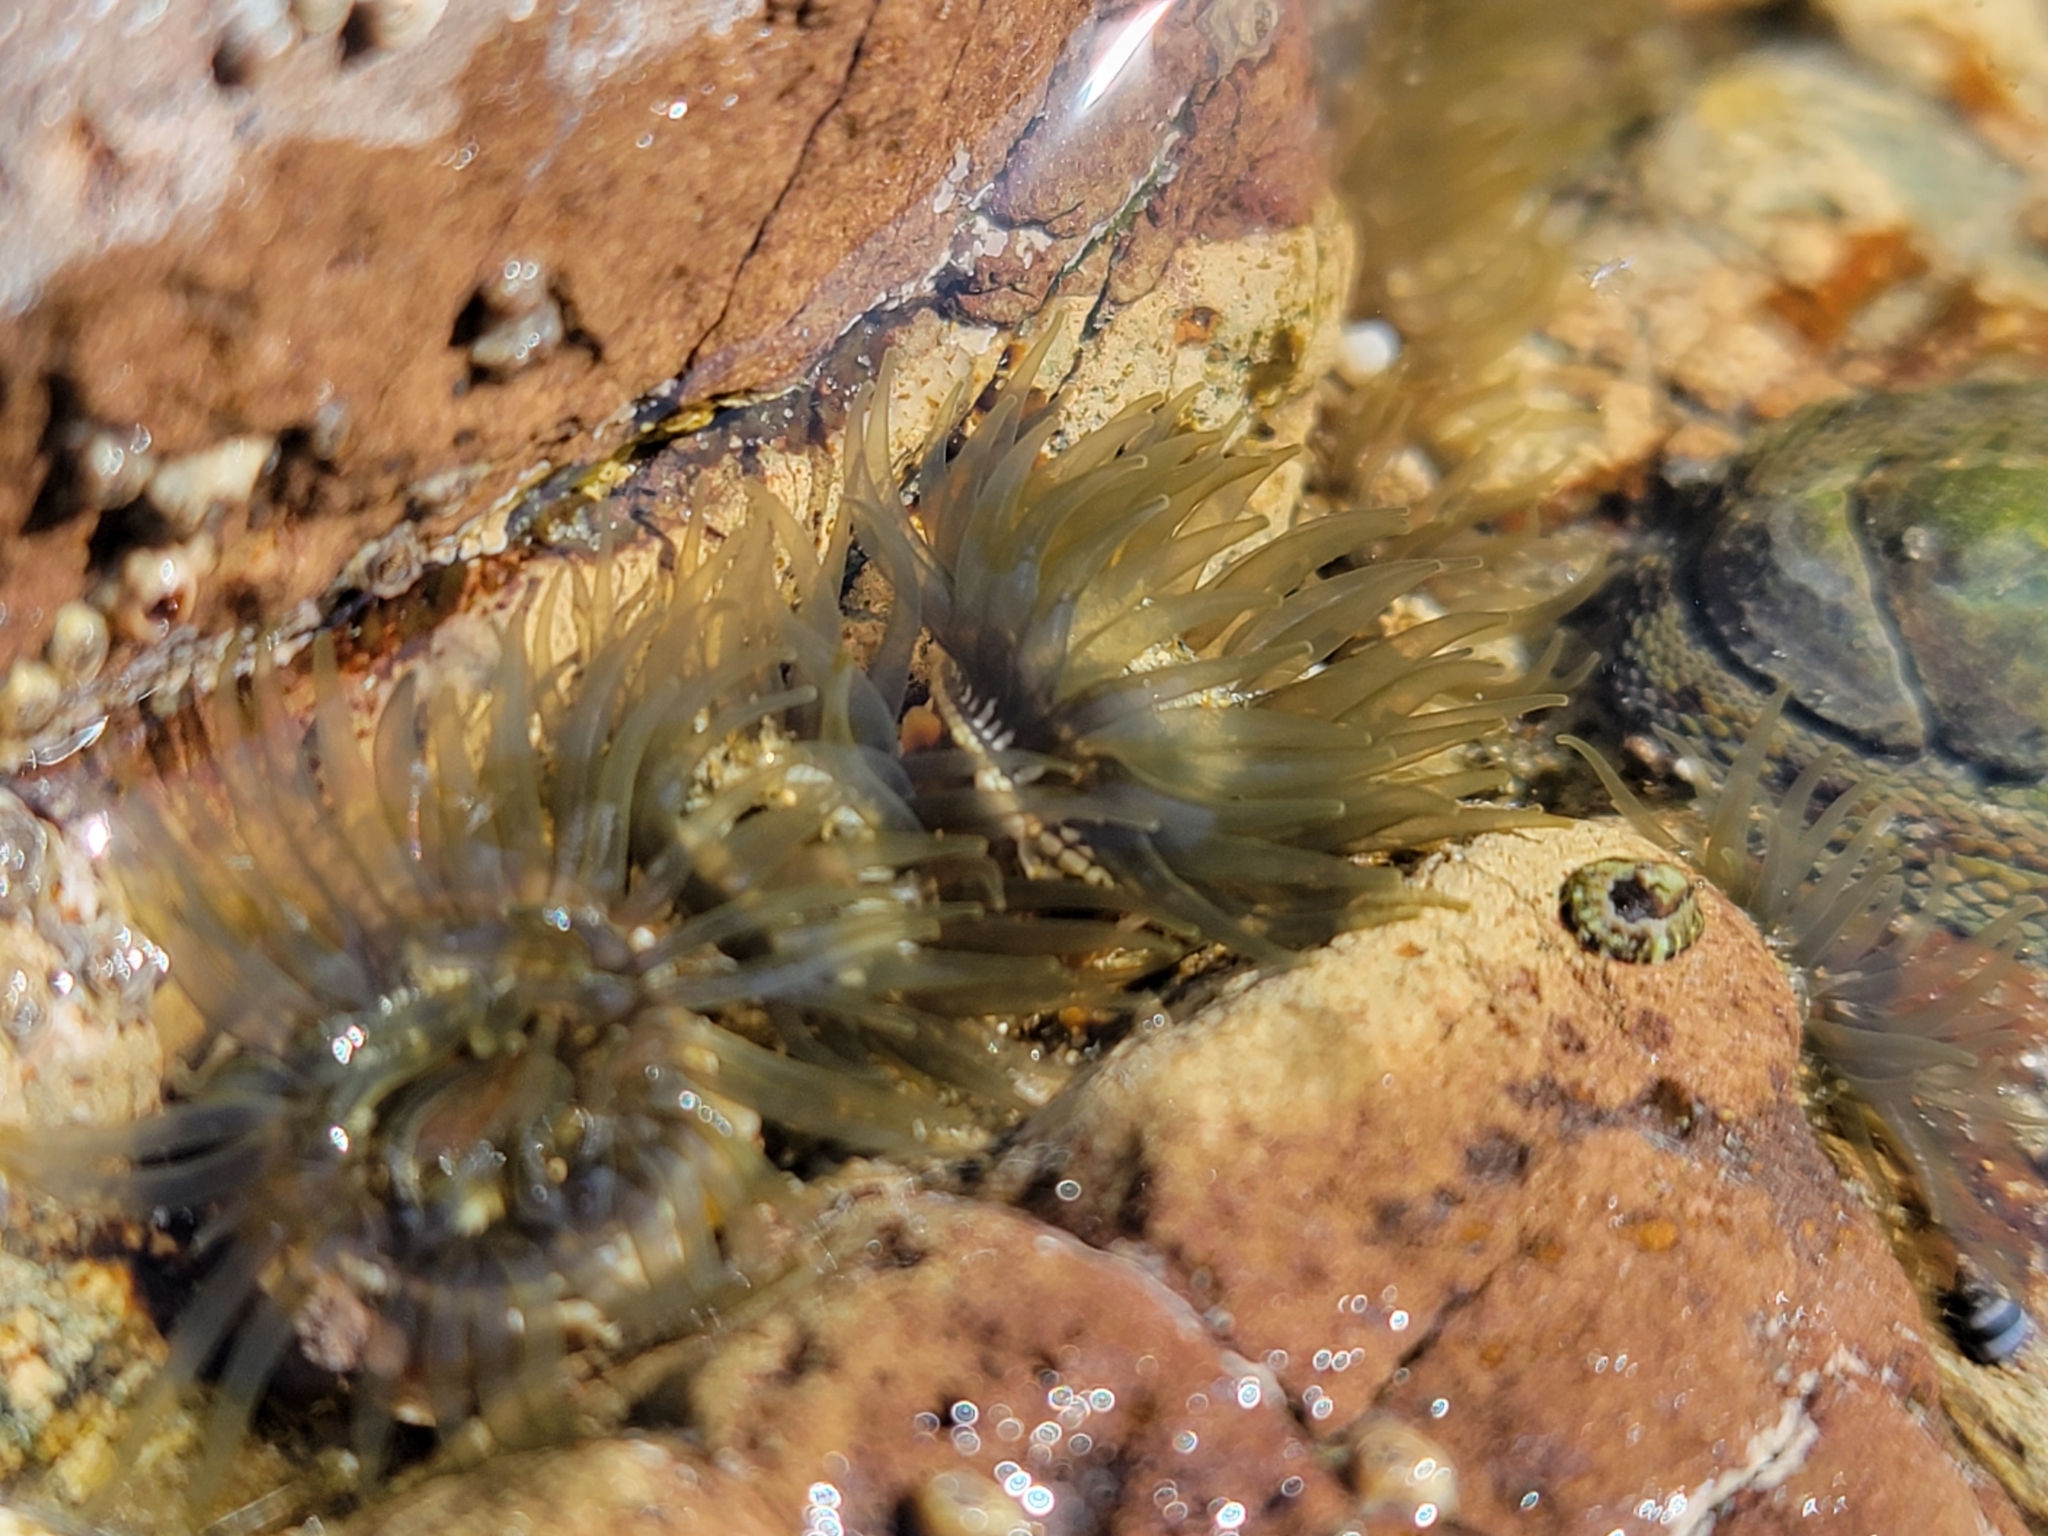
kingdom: Animalia
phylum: Cnidaria
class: Anthozoa
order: Actiniaria
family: Actiniidae
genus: Isactinia
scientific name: Isactinia olivacea
